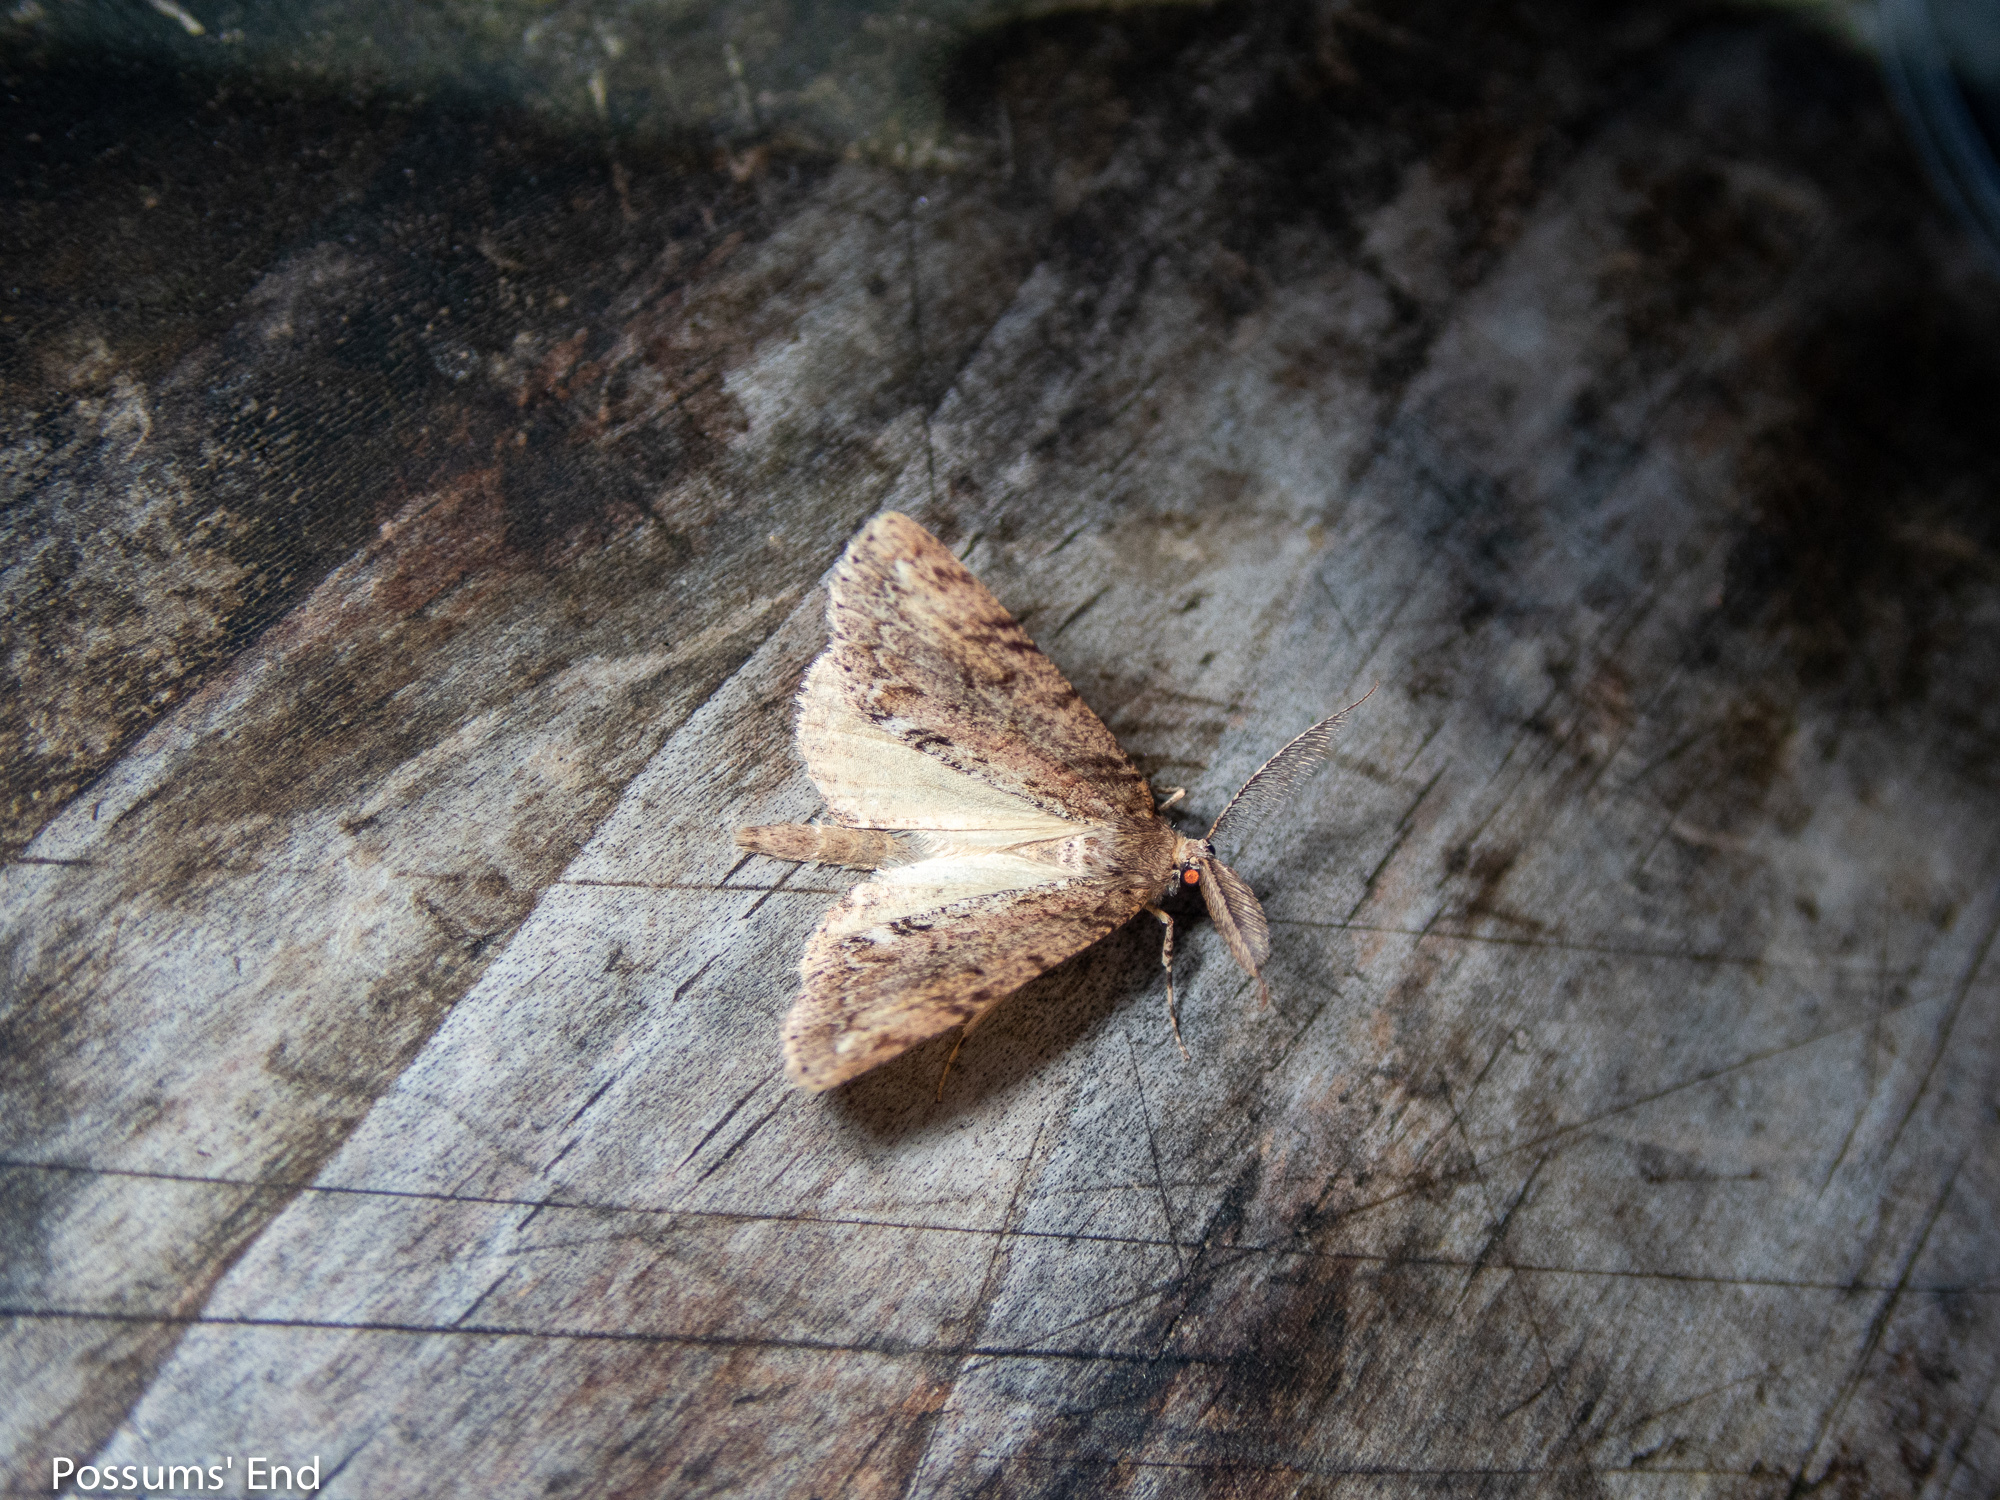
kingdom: Animalia
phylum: Arthropoda
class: Insecta
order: Lepidoptera
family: Geometridae
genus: Pseudocoremia
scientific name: Pseudocoremia suavis
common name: Common forest looper
